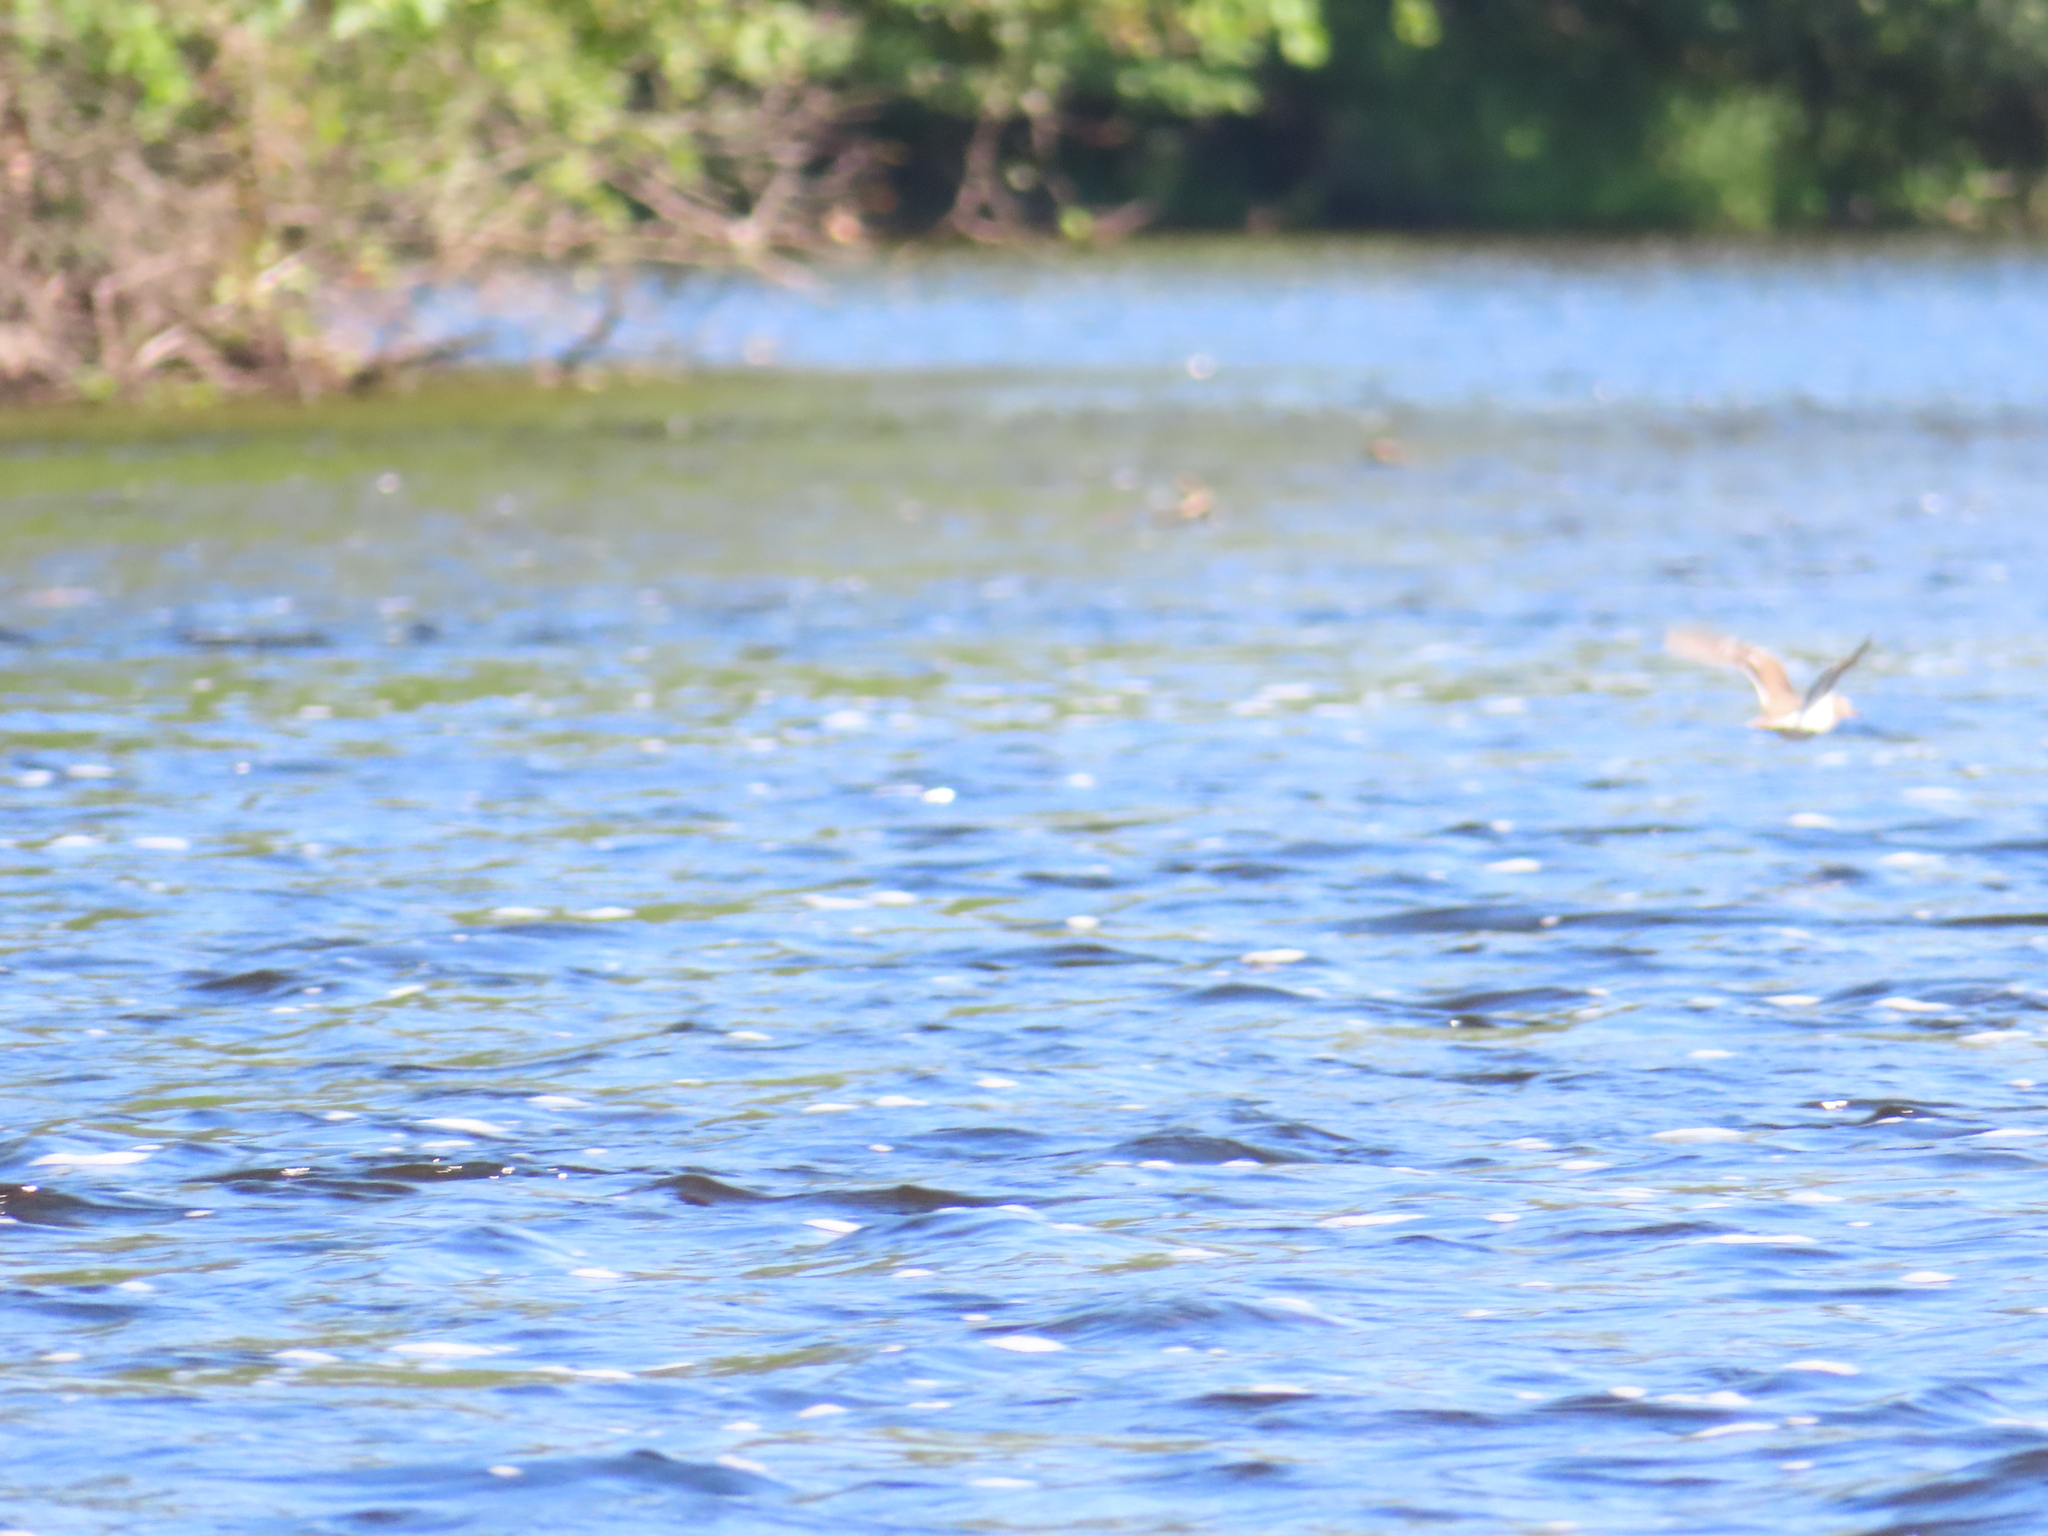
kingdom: Animalia
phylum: Chordata
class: Aves
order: Charadriiformes
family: Scolopacidae
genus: Actitis
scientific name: Actitis macularius
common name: Spotted sandpiper
